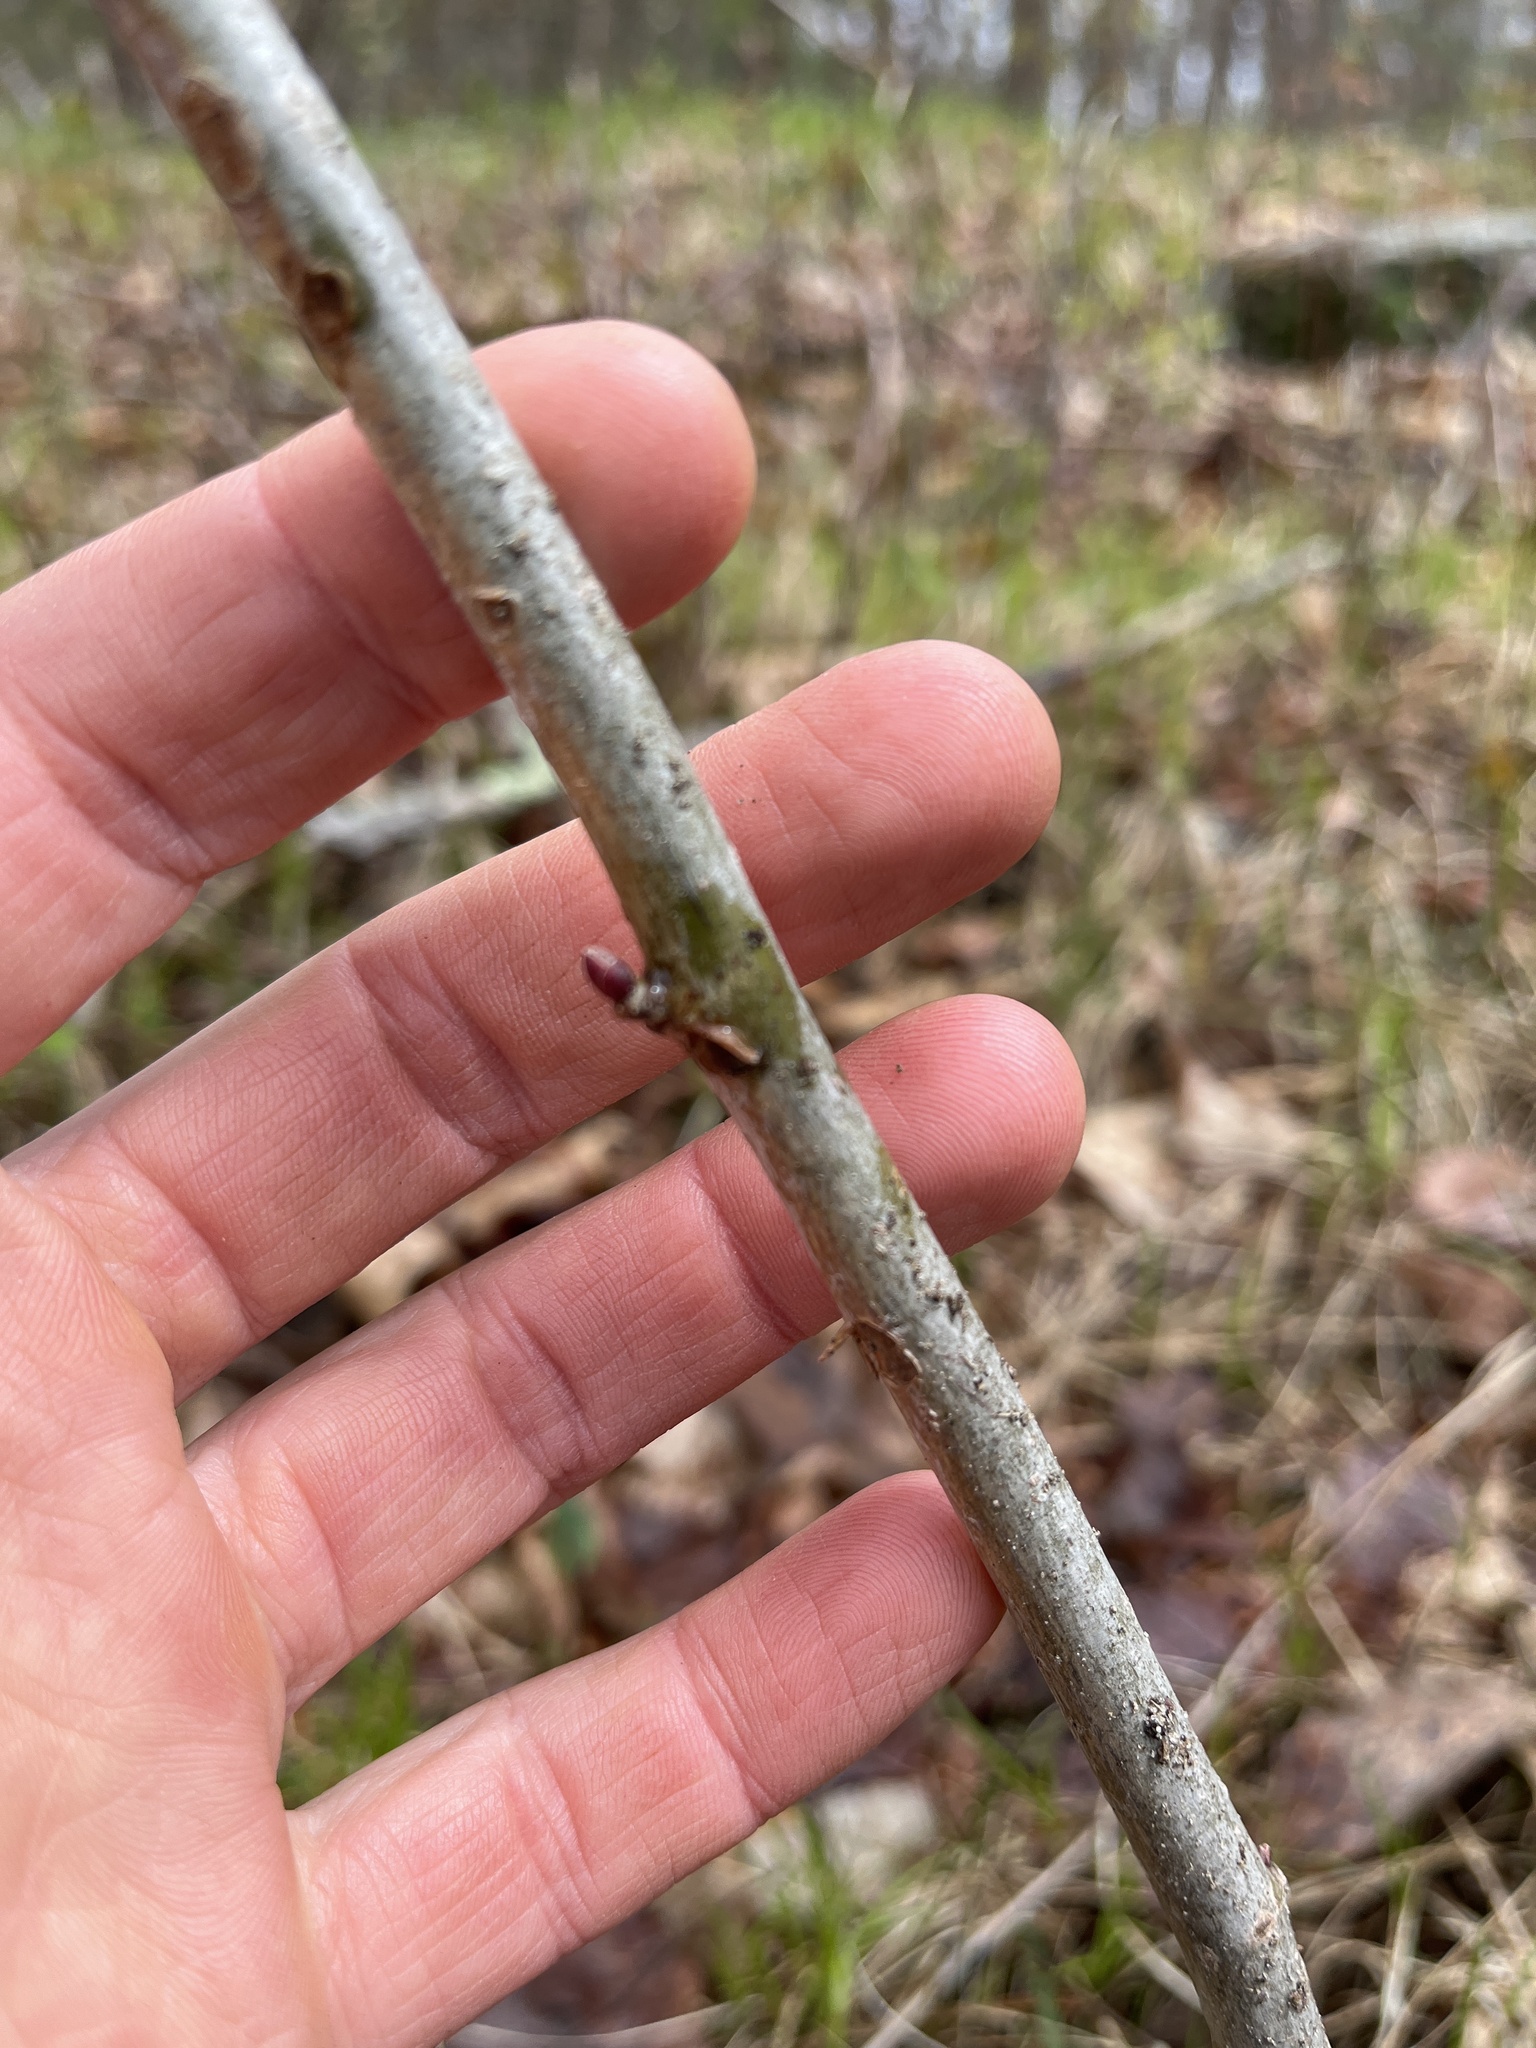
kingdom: Plantae
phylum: Tracheophyta
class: Magnoliopsida
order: Malvales
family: Malvaceae
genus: Tilia
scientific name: Tilia americana
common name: Basswood
